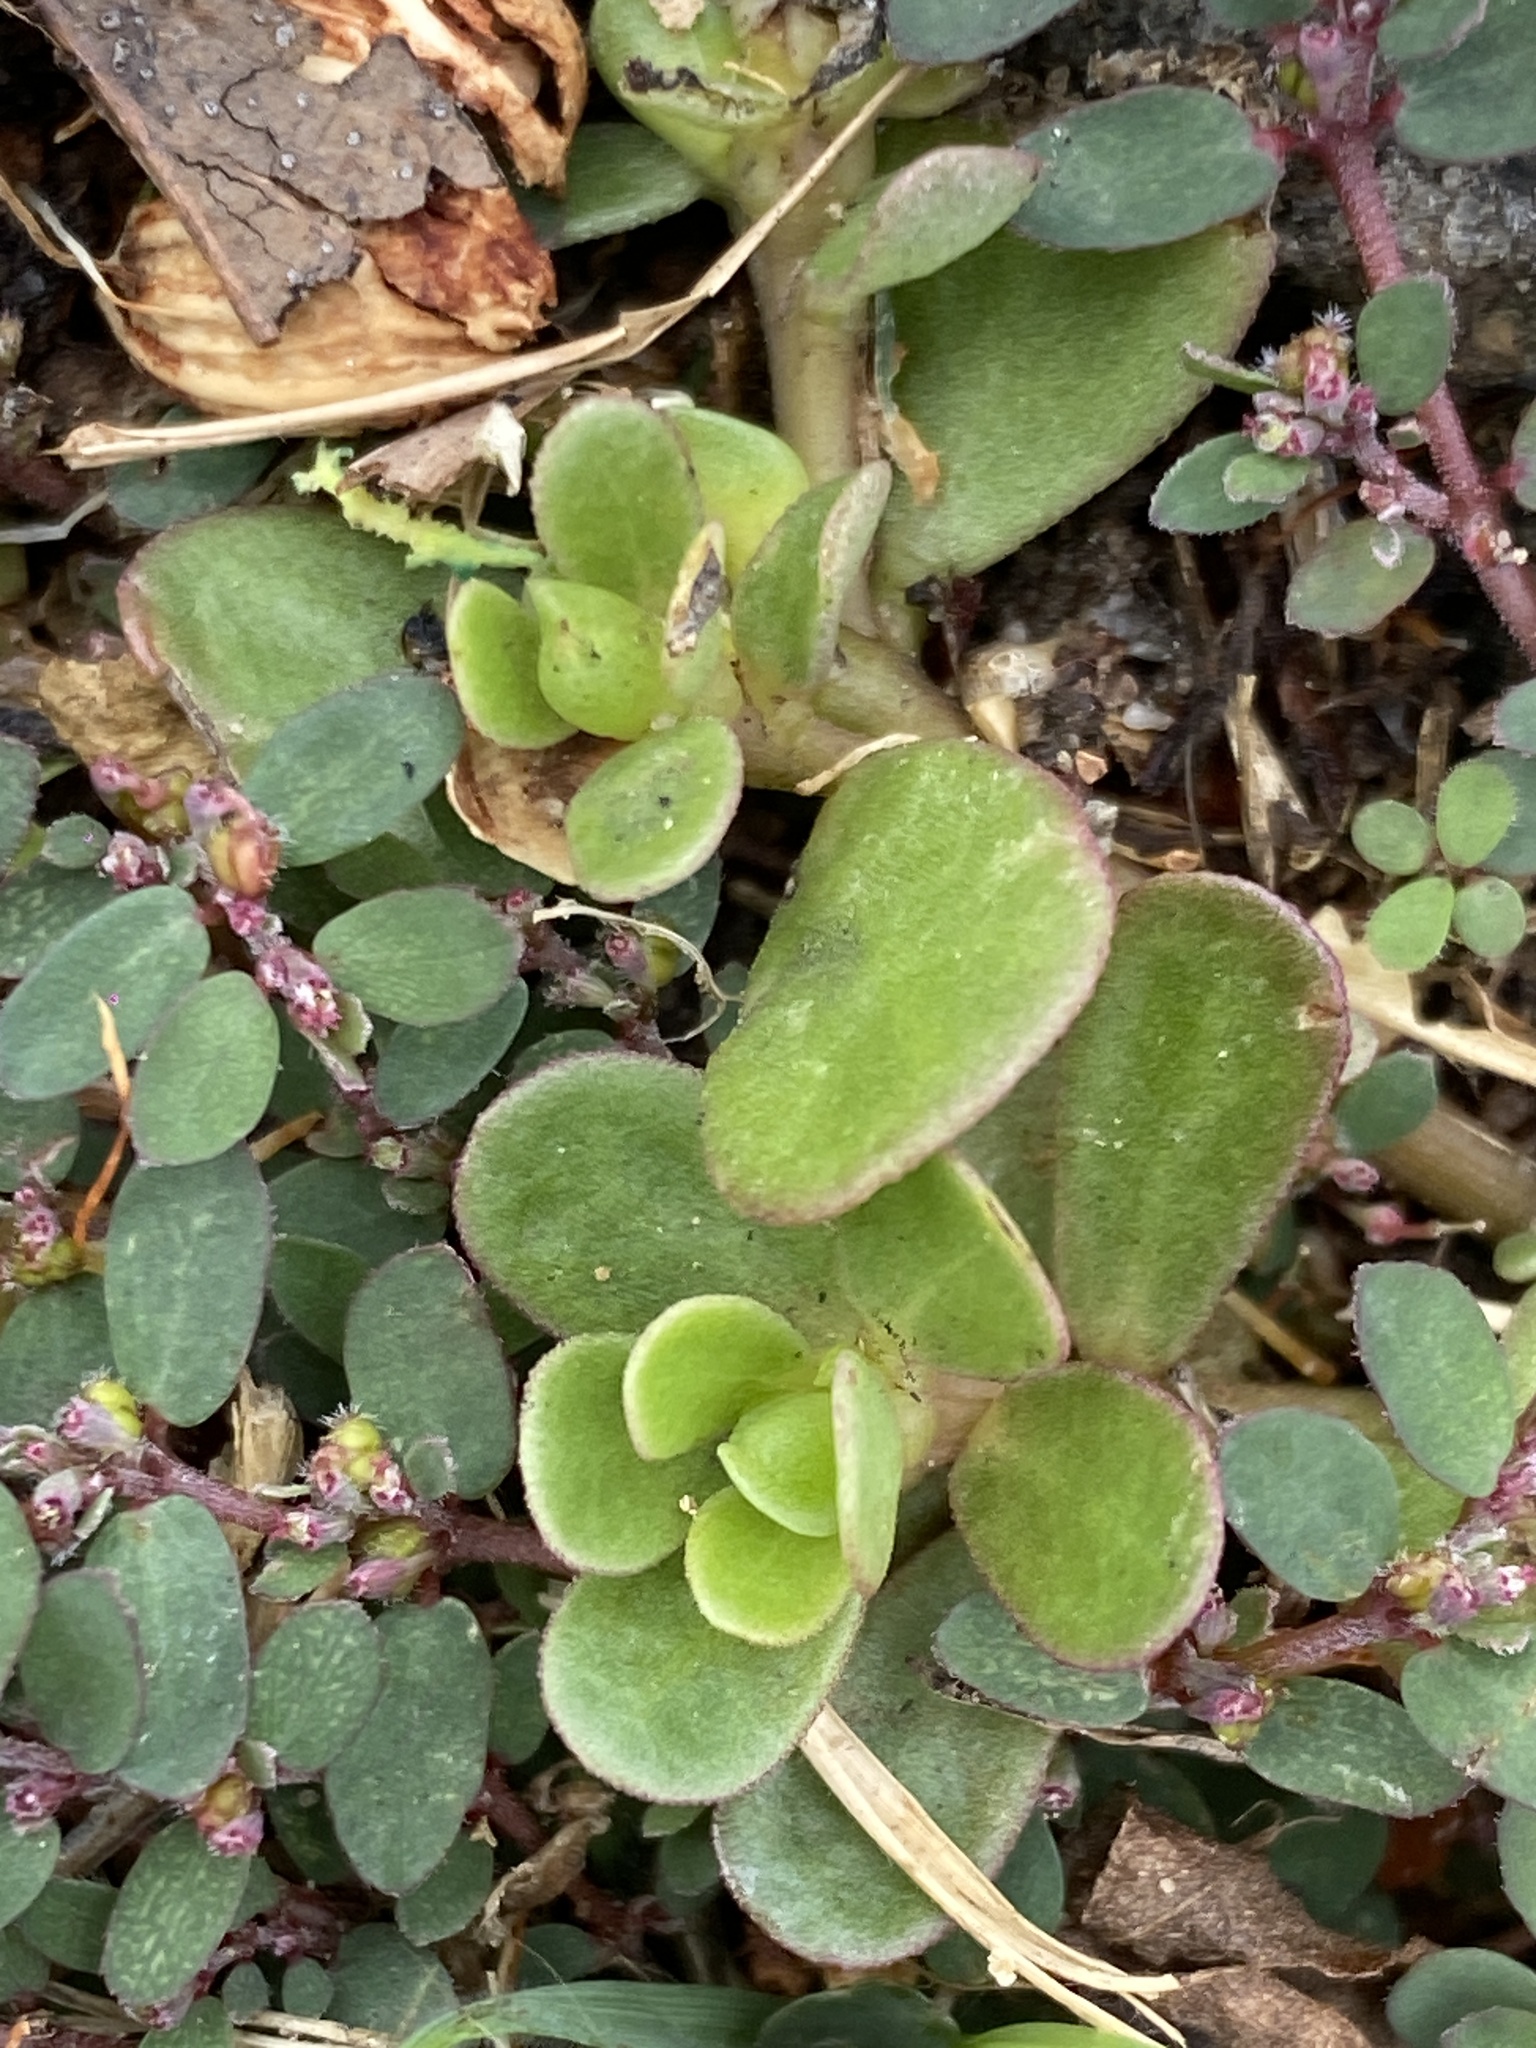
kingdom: Plantae
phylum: Tracheophyta
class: Magnoliopsida
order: Caryophyllales
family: Portulacaceae
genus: Portulaca
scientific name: Portulaca oleracea
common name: Common purslane
